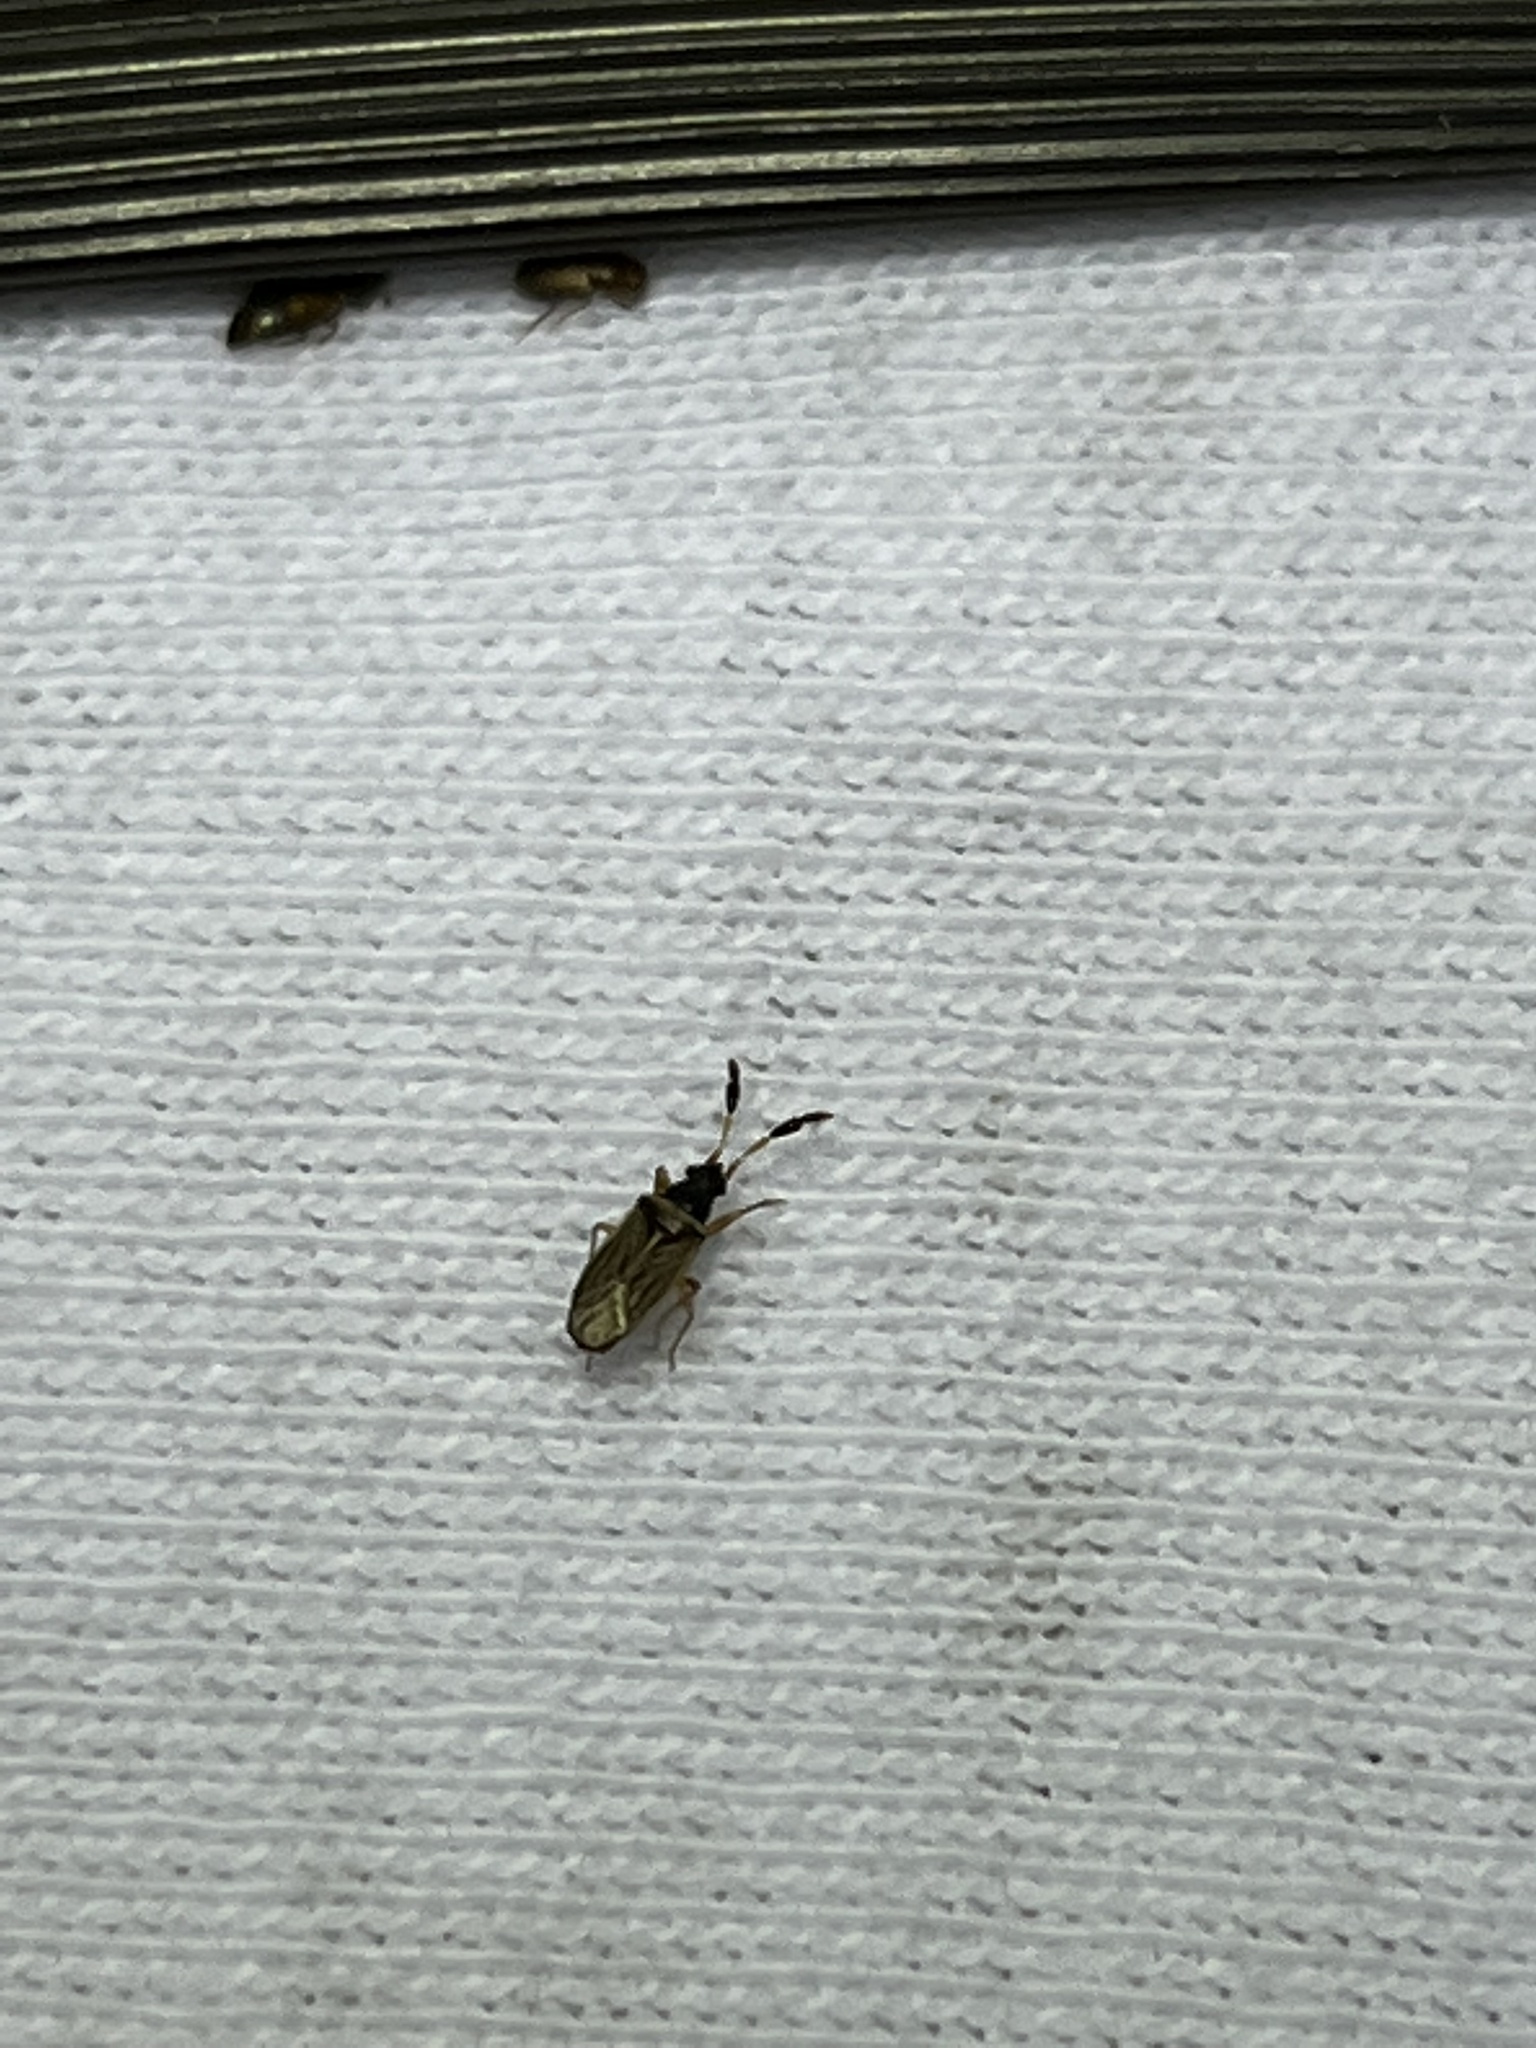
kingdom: Animalia
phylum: Arthropoda
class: Insecta
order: Hemiptera
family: Rhyparochromidae
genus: Ptochiomera
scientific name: Ptochiomera nodosa
